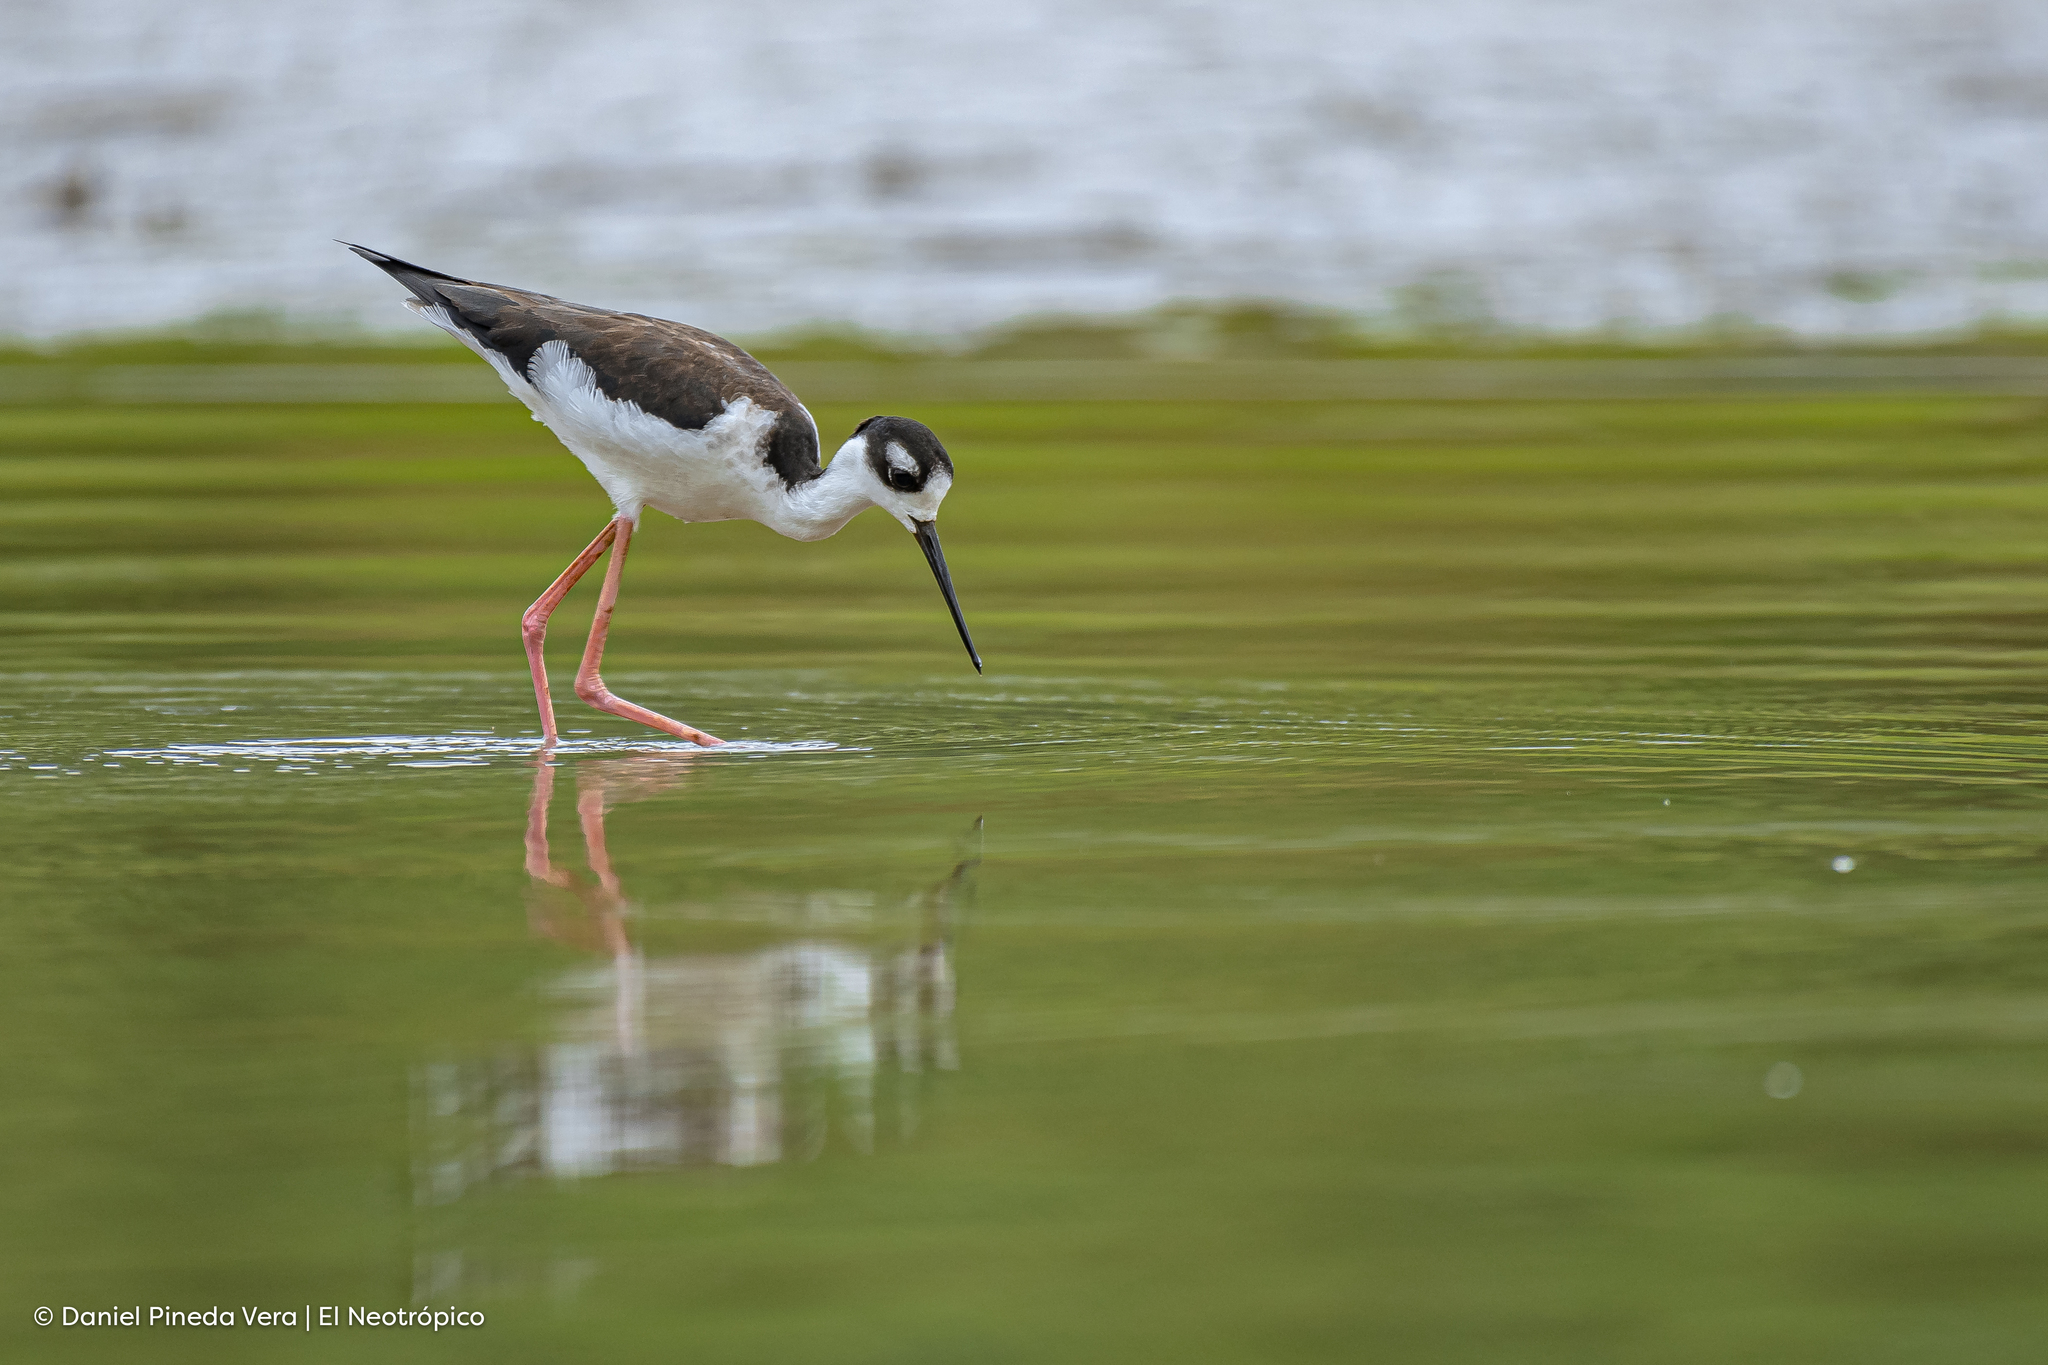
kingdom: Animalia
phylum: Chordata
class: Aves
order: Charadriiformes
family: Recurvirostridae
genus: Himantopus
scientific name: Himantopus mexicanus
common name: Black-necked stilt
